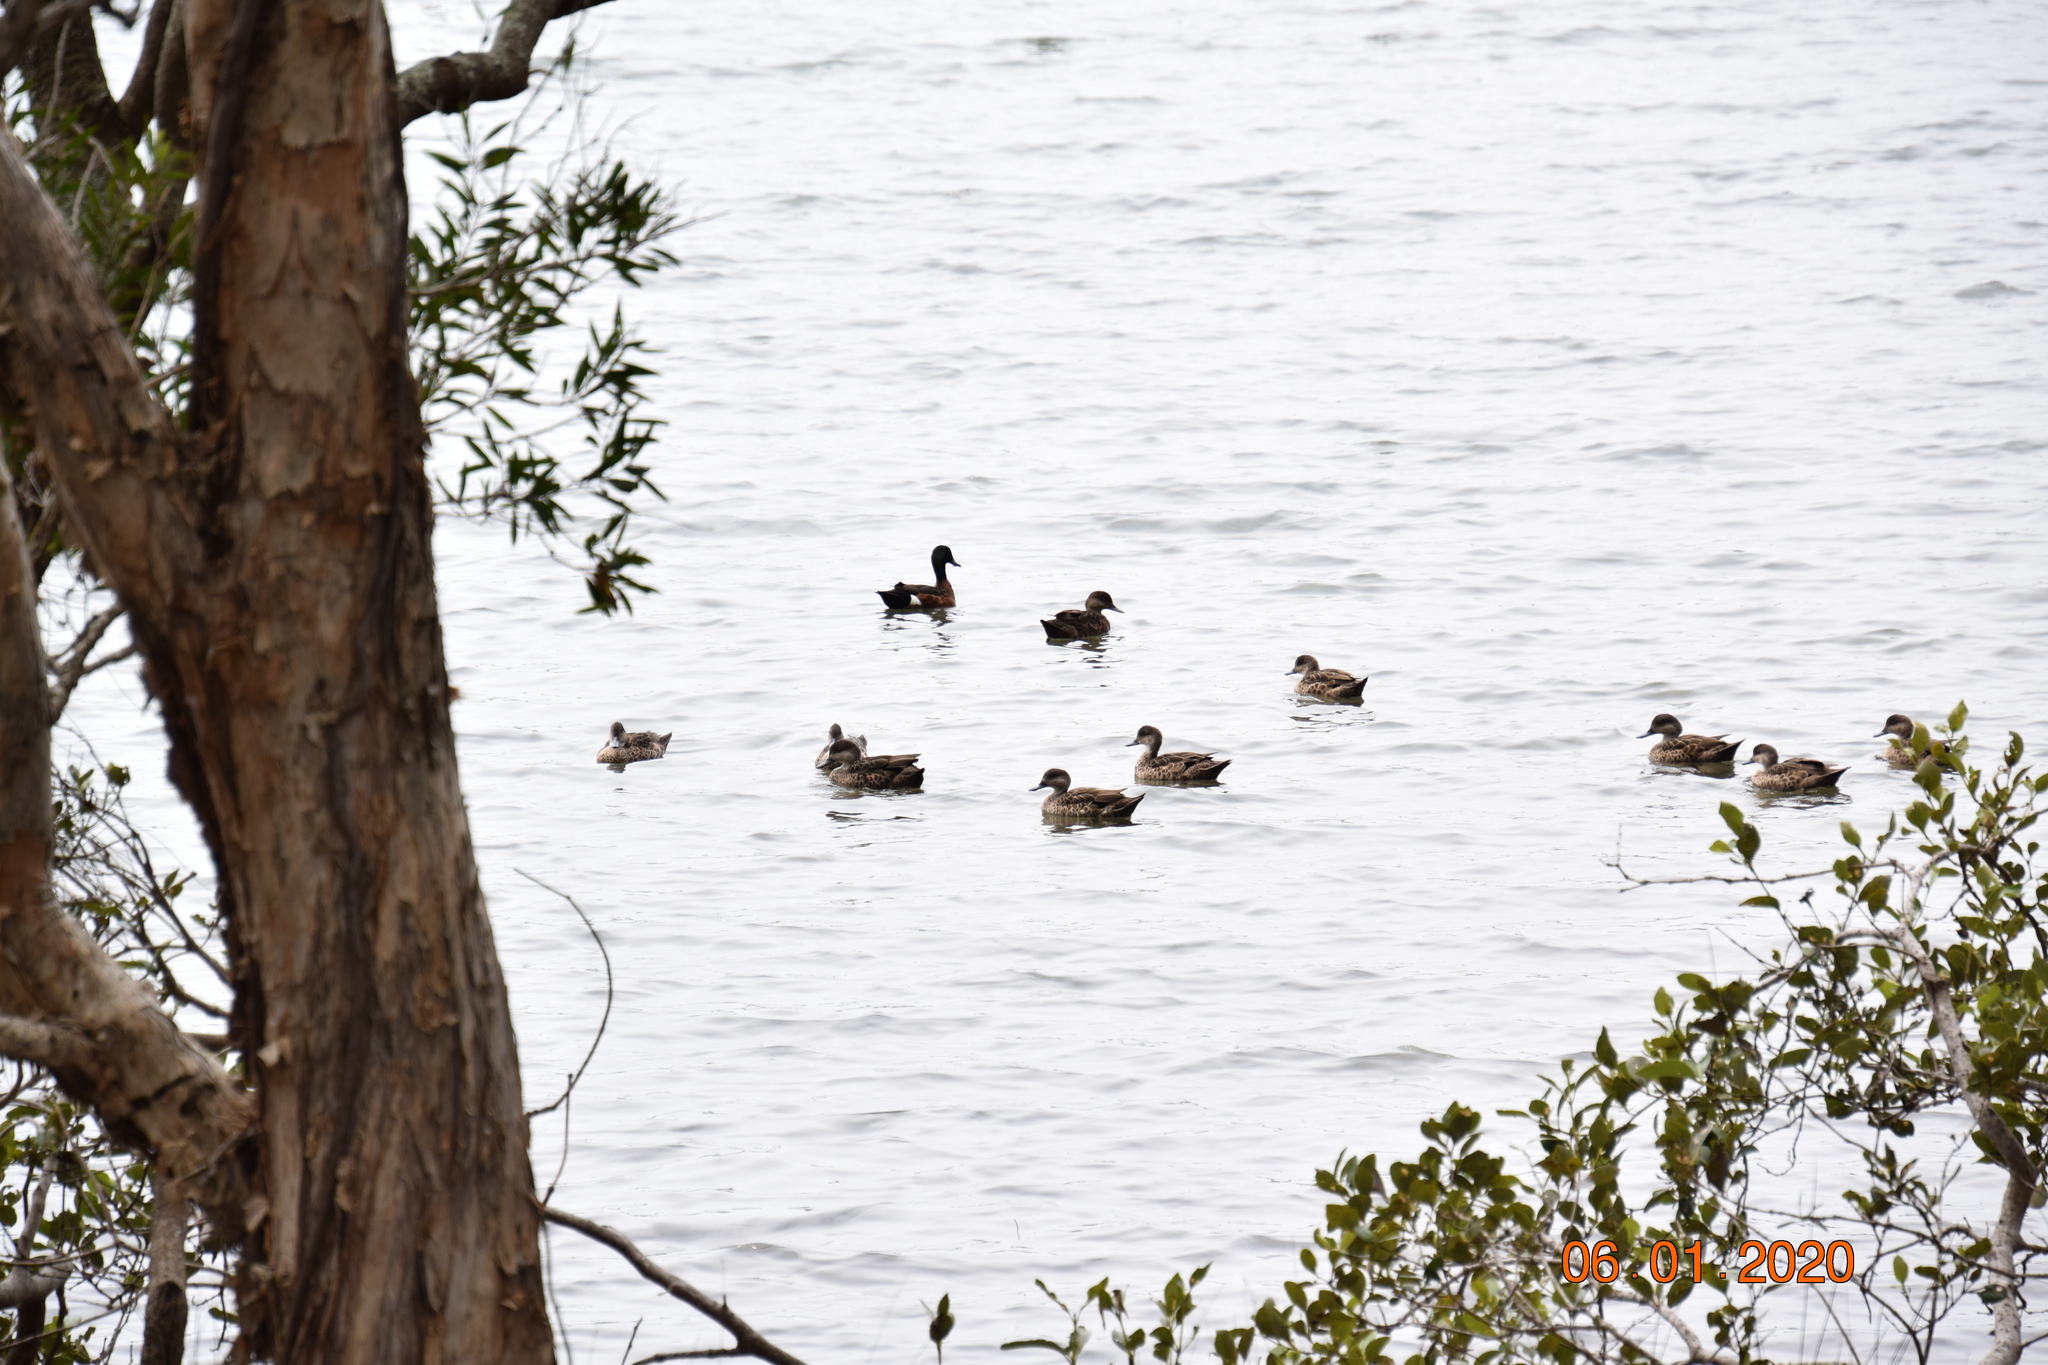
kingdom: Animalia
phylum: Chordata
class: Aves
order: Anseriformes
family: Anatidae
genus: Anas
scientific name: Anas castanea
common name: Chestnut teal
